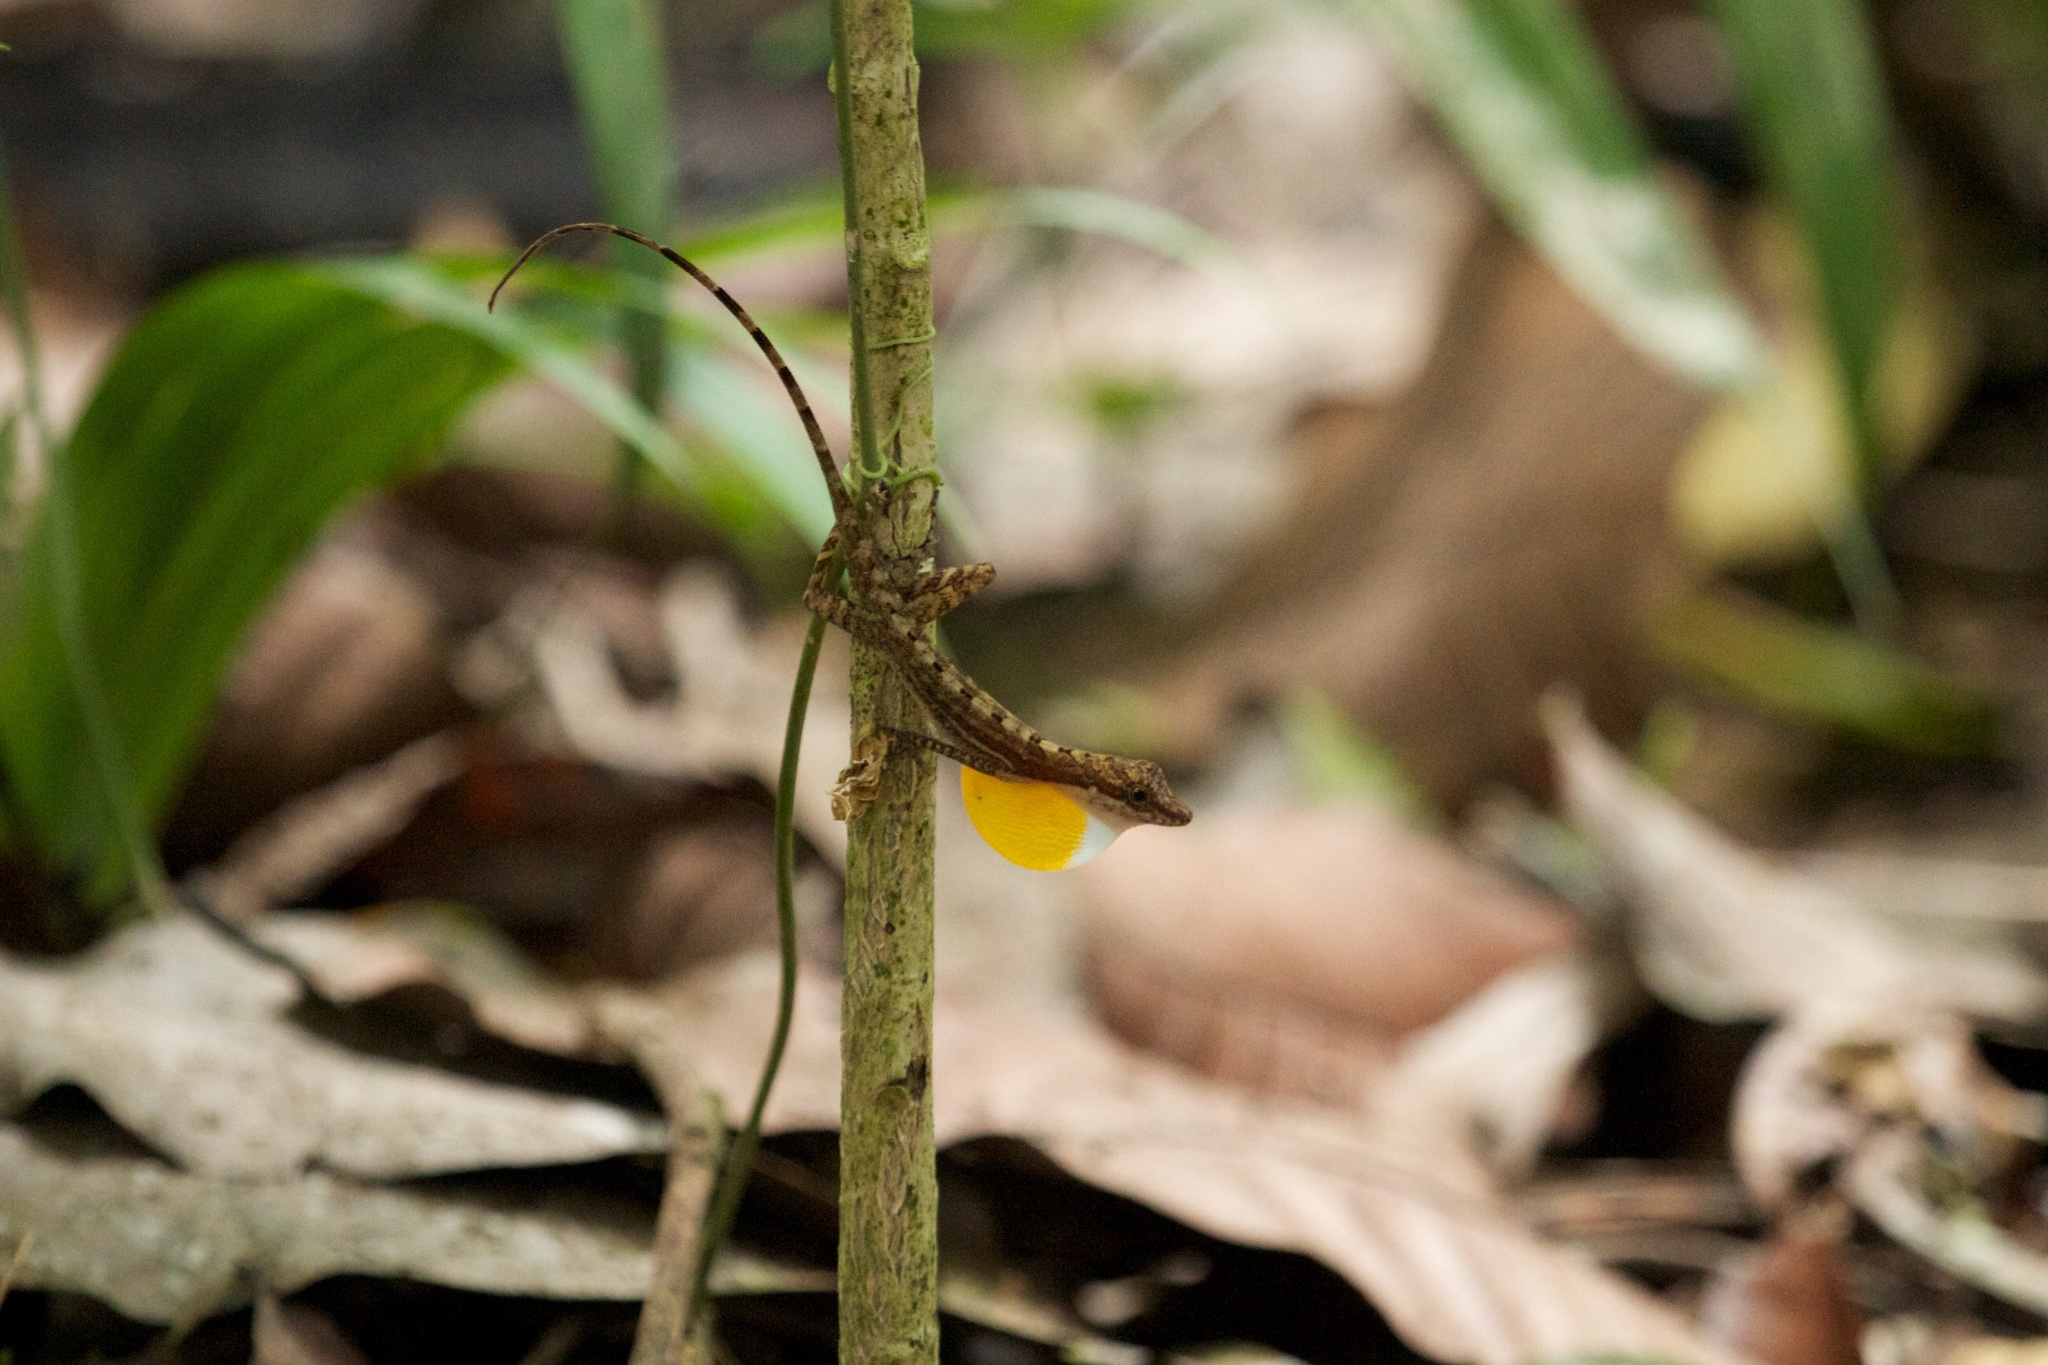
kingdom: Animalia
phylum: Chordata
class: Squamata
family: Dactyloidae
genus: Anolis
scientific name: Anolis apletophallus
